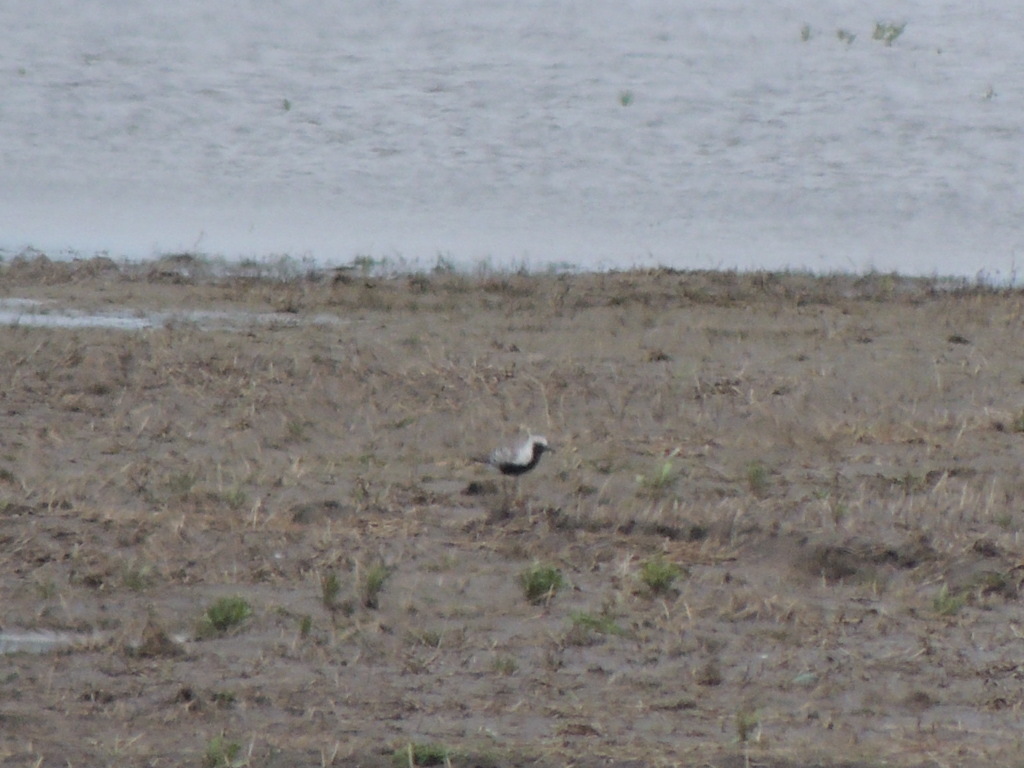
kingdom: Animalia
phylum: Chordata
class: Aves
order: Charadriiformes
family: Charadriidae
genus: Pluvialis
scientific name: Pluvialis squatarola
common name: Grey plover
